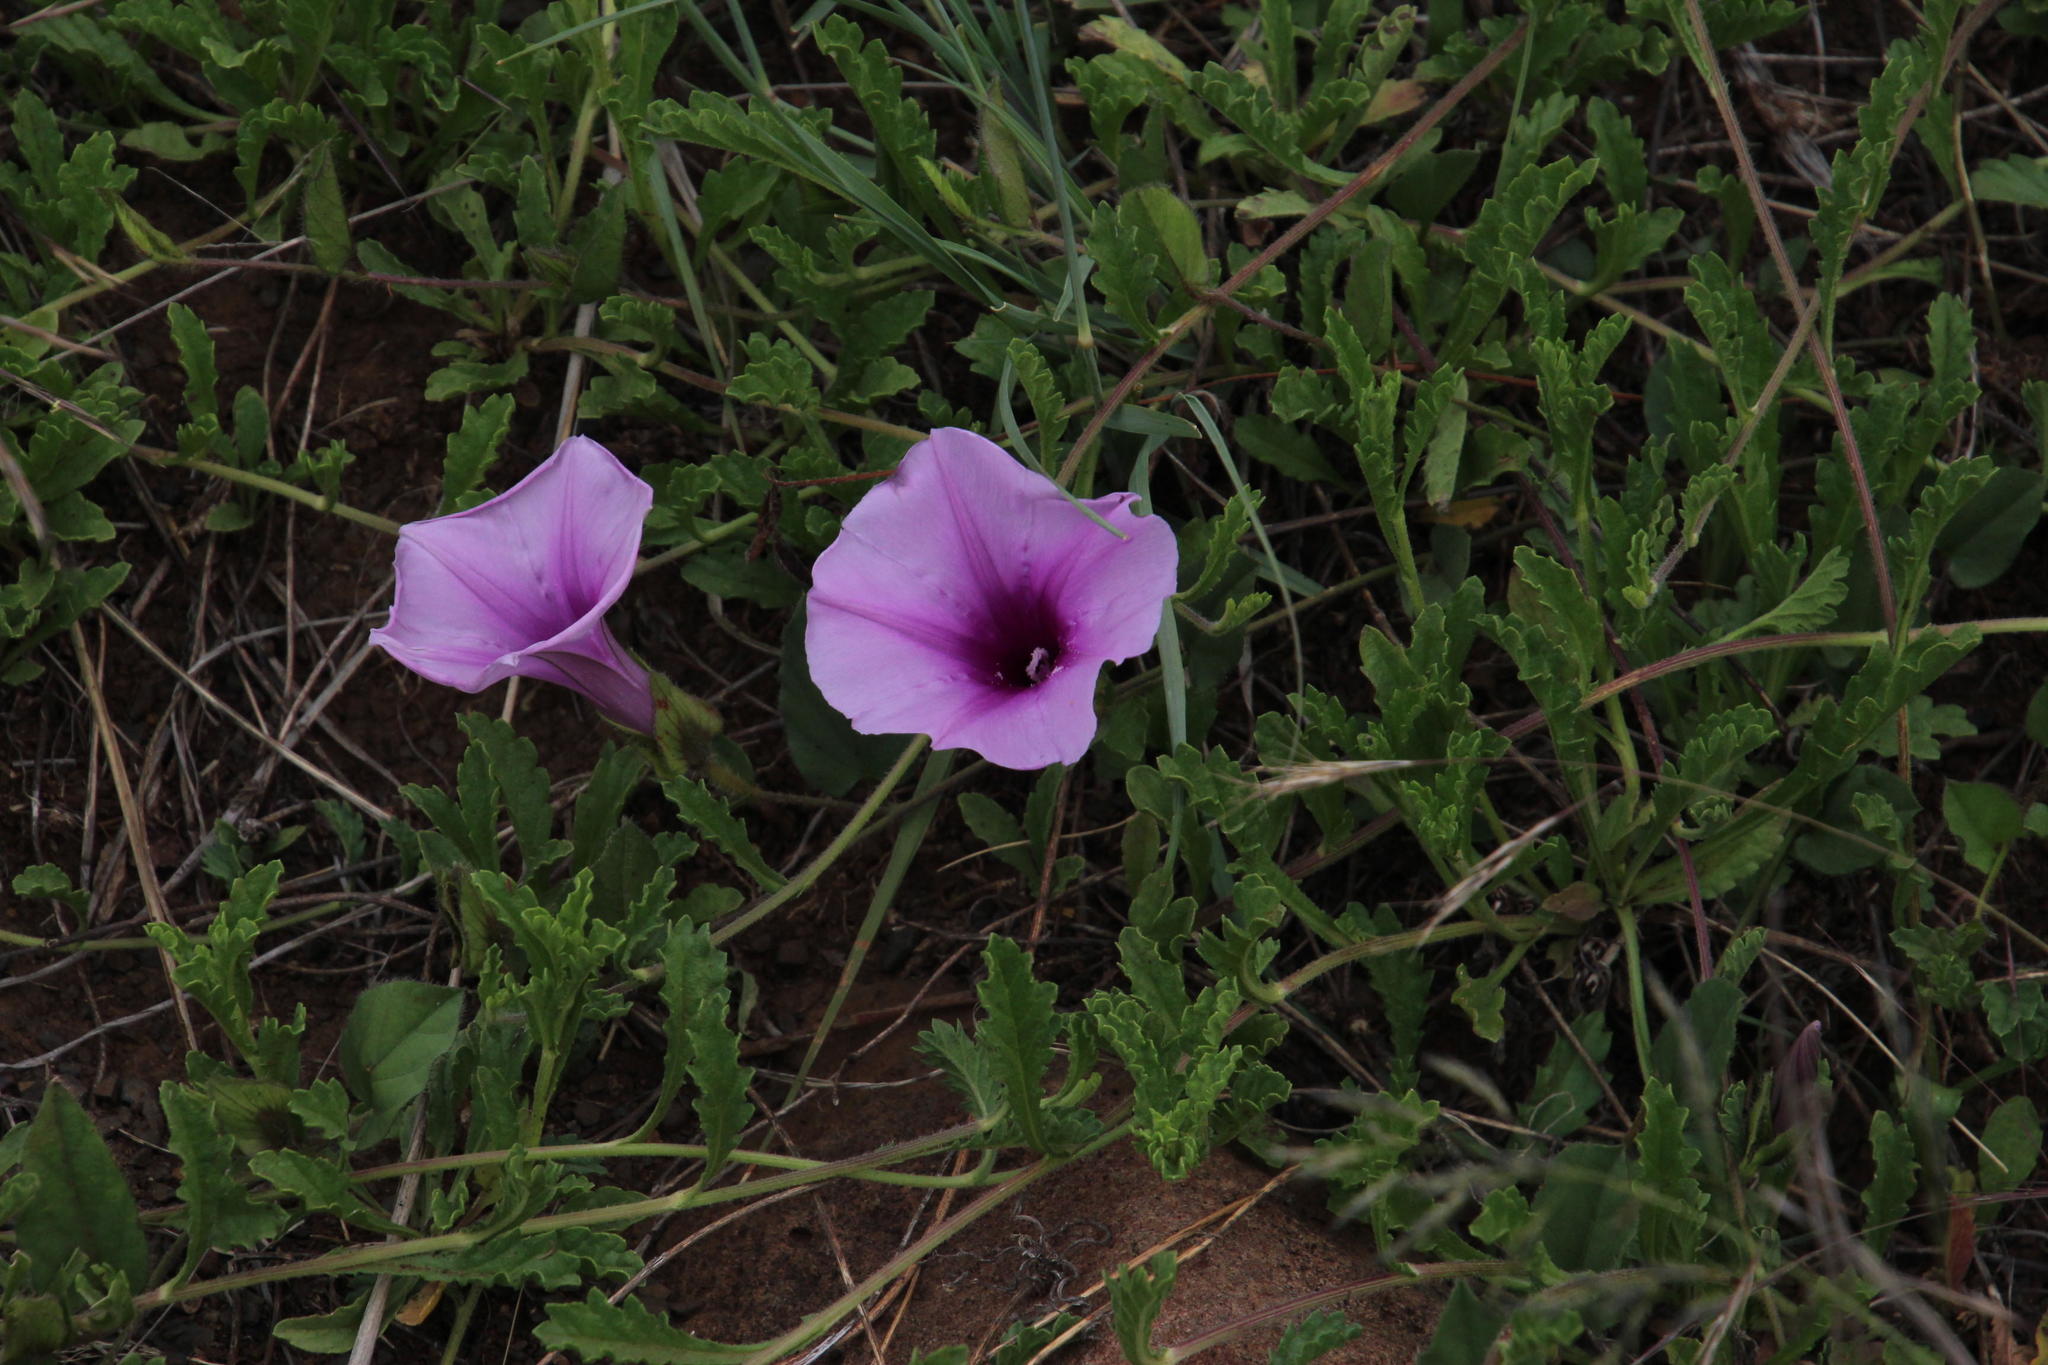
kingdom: Plantae
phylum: Tracheophyta
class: Magnoliopsida
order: Solanales
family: Convolvulaceae
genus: Ipomoea
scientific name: Ipomoea crassipes
